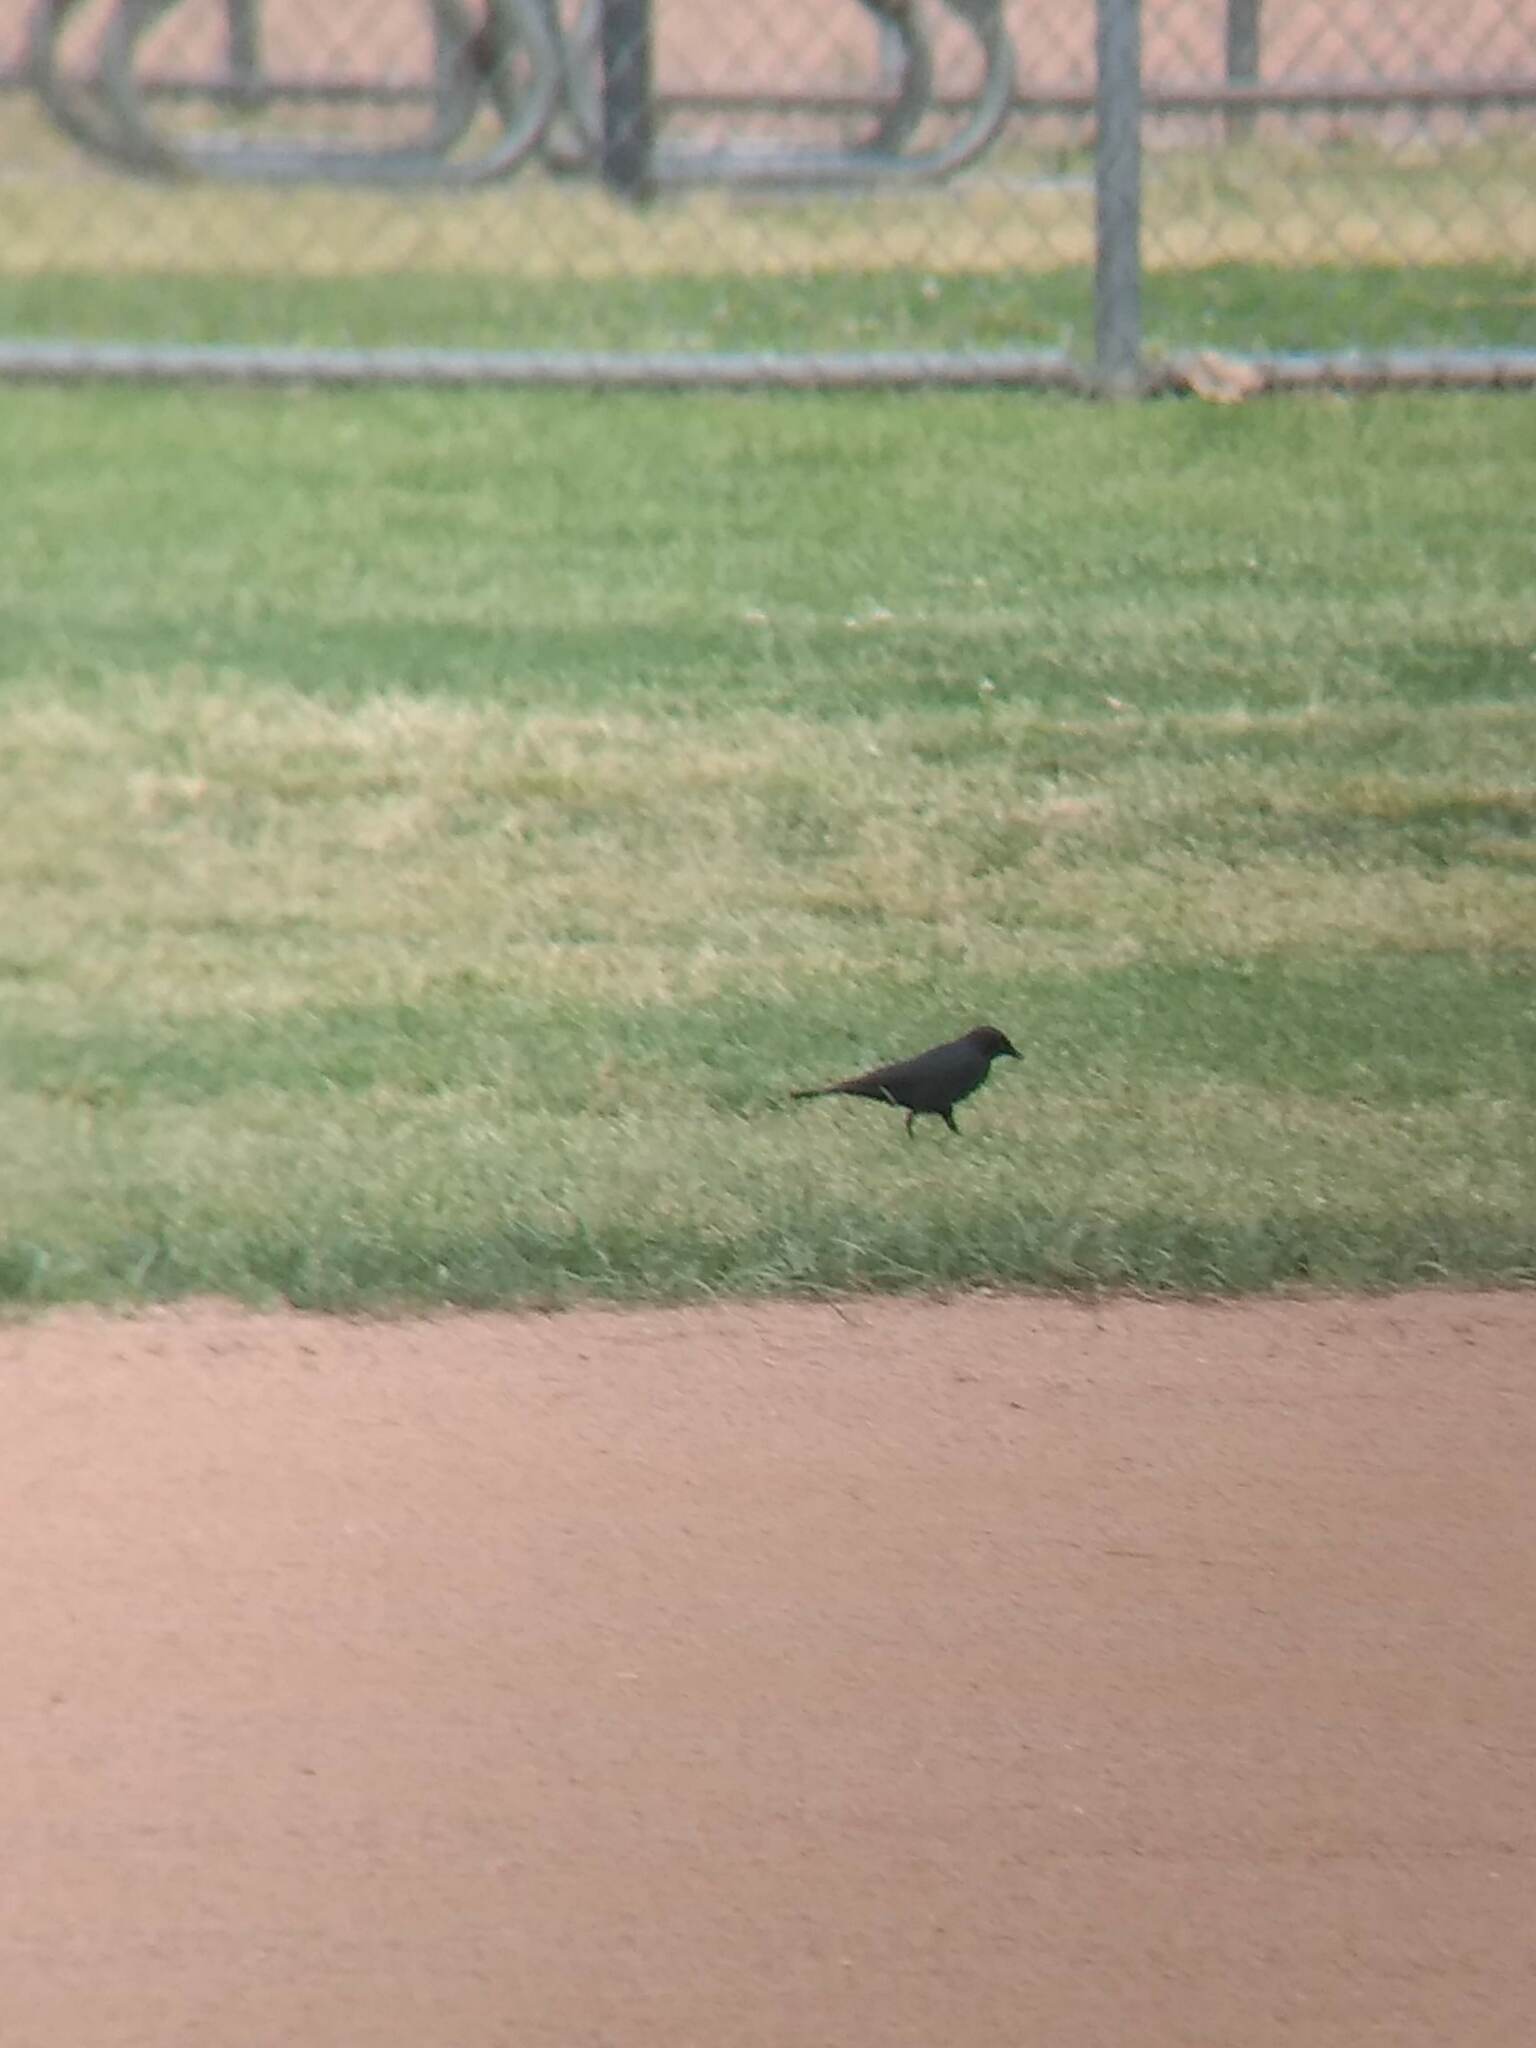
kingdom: Animalia
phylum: Chordata
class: Aves
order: Passeriformes
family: Icteridae
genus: Euphagus
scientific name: Euphagus cyanocephalus
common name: Brewer's blackbird
